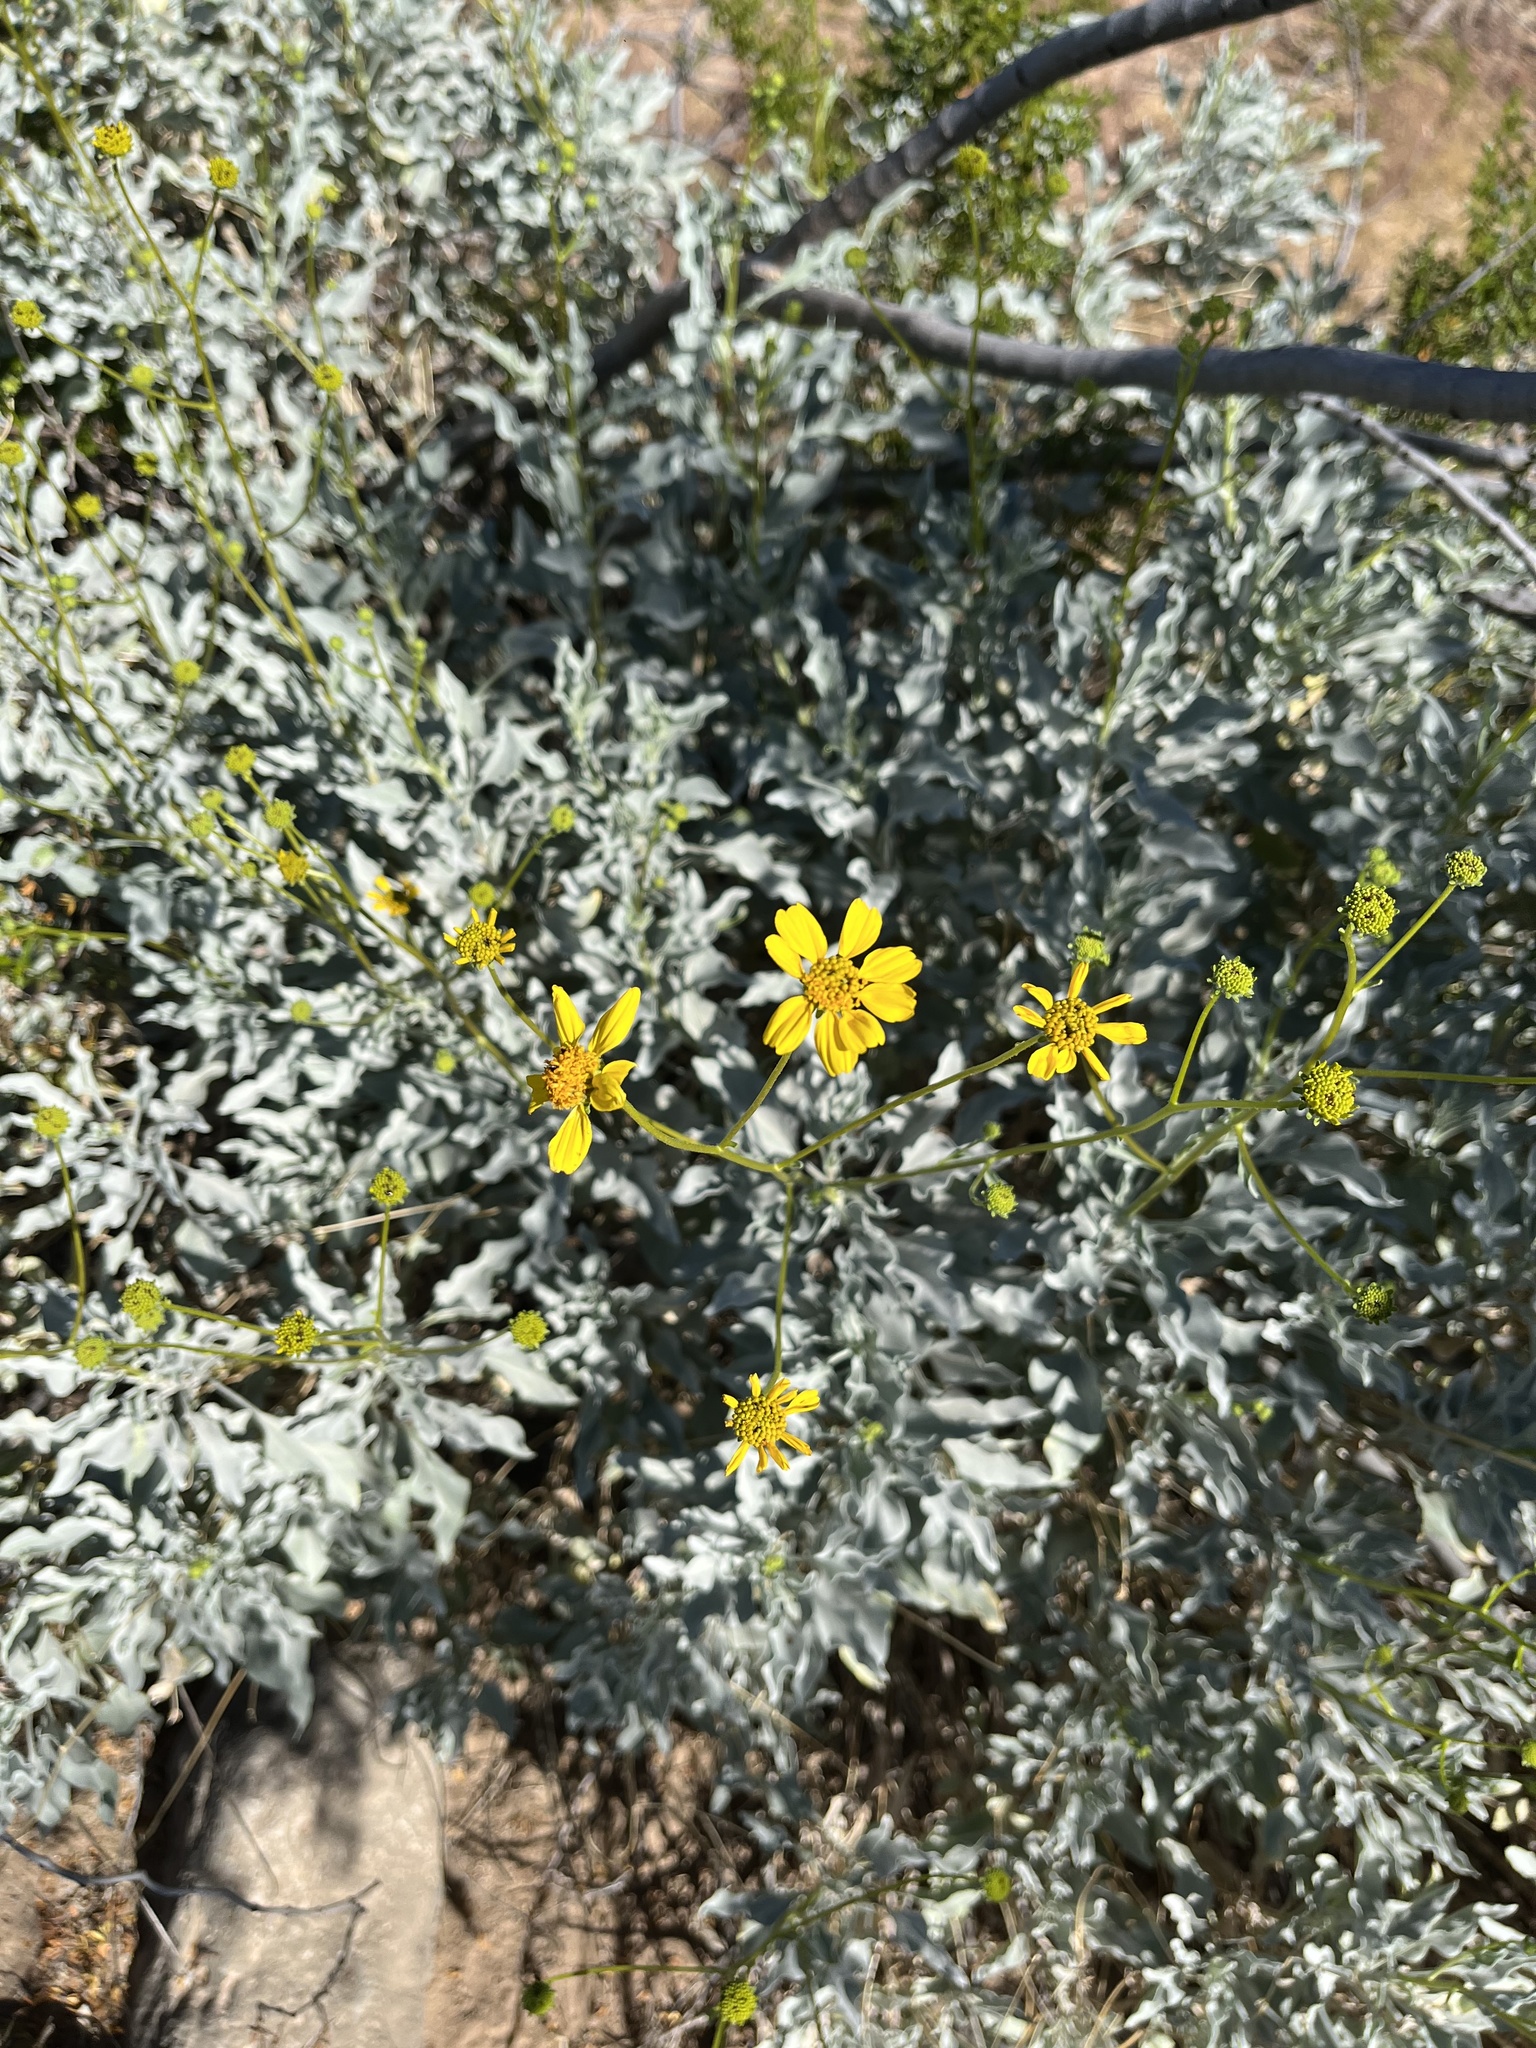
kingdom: Plantae
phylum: Tracheophyta
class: Magnoliopsida
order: Asterales
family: Asteraceae
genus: Encelia
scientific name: Encelia farinosa
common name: Brittlebush
